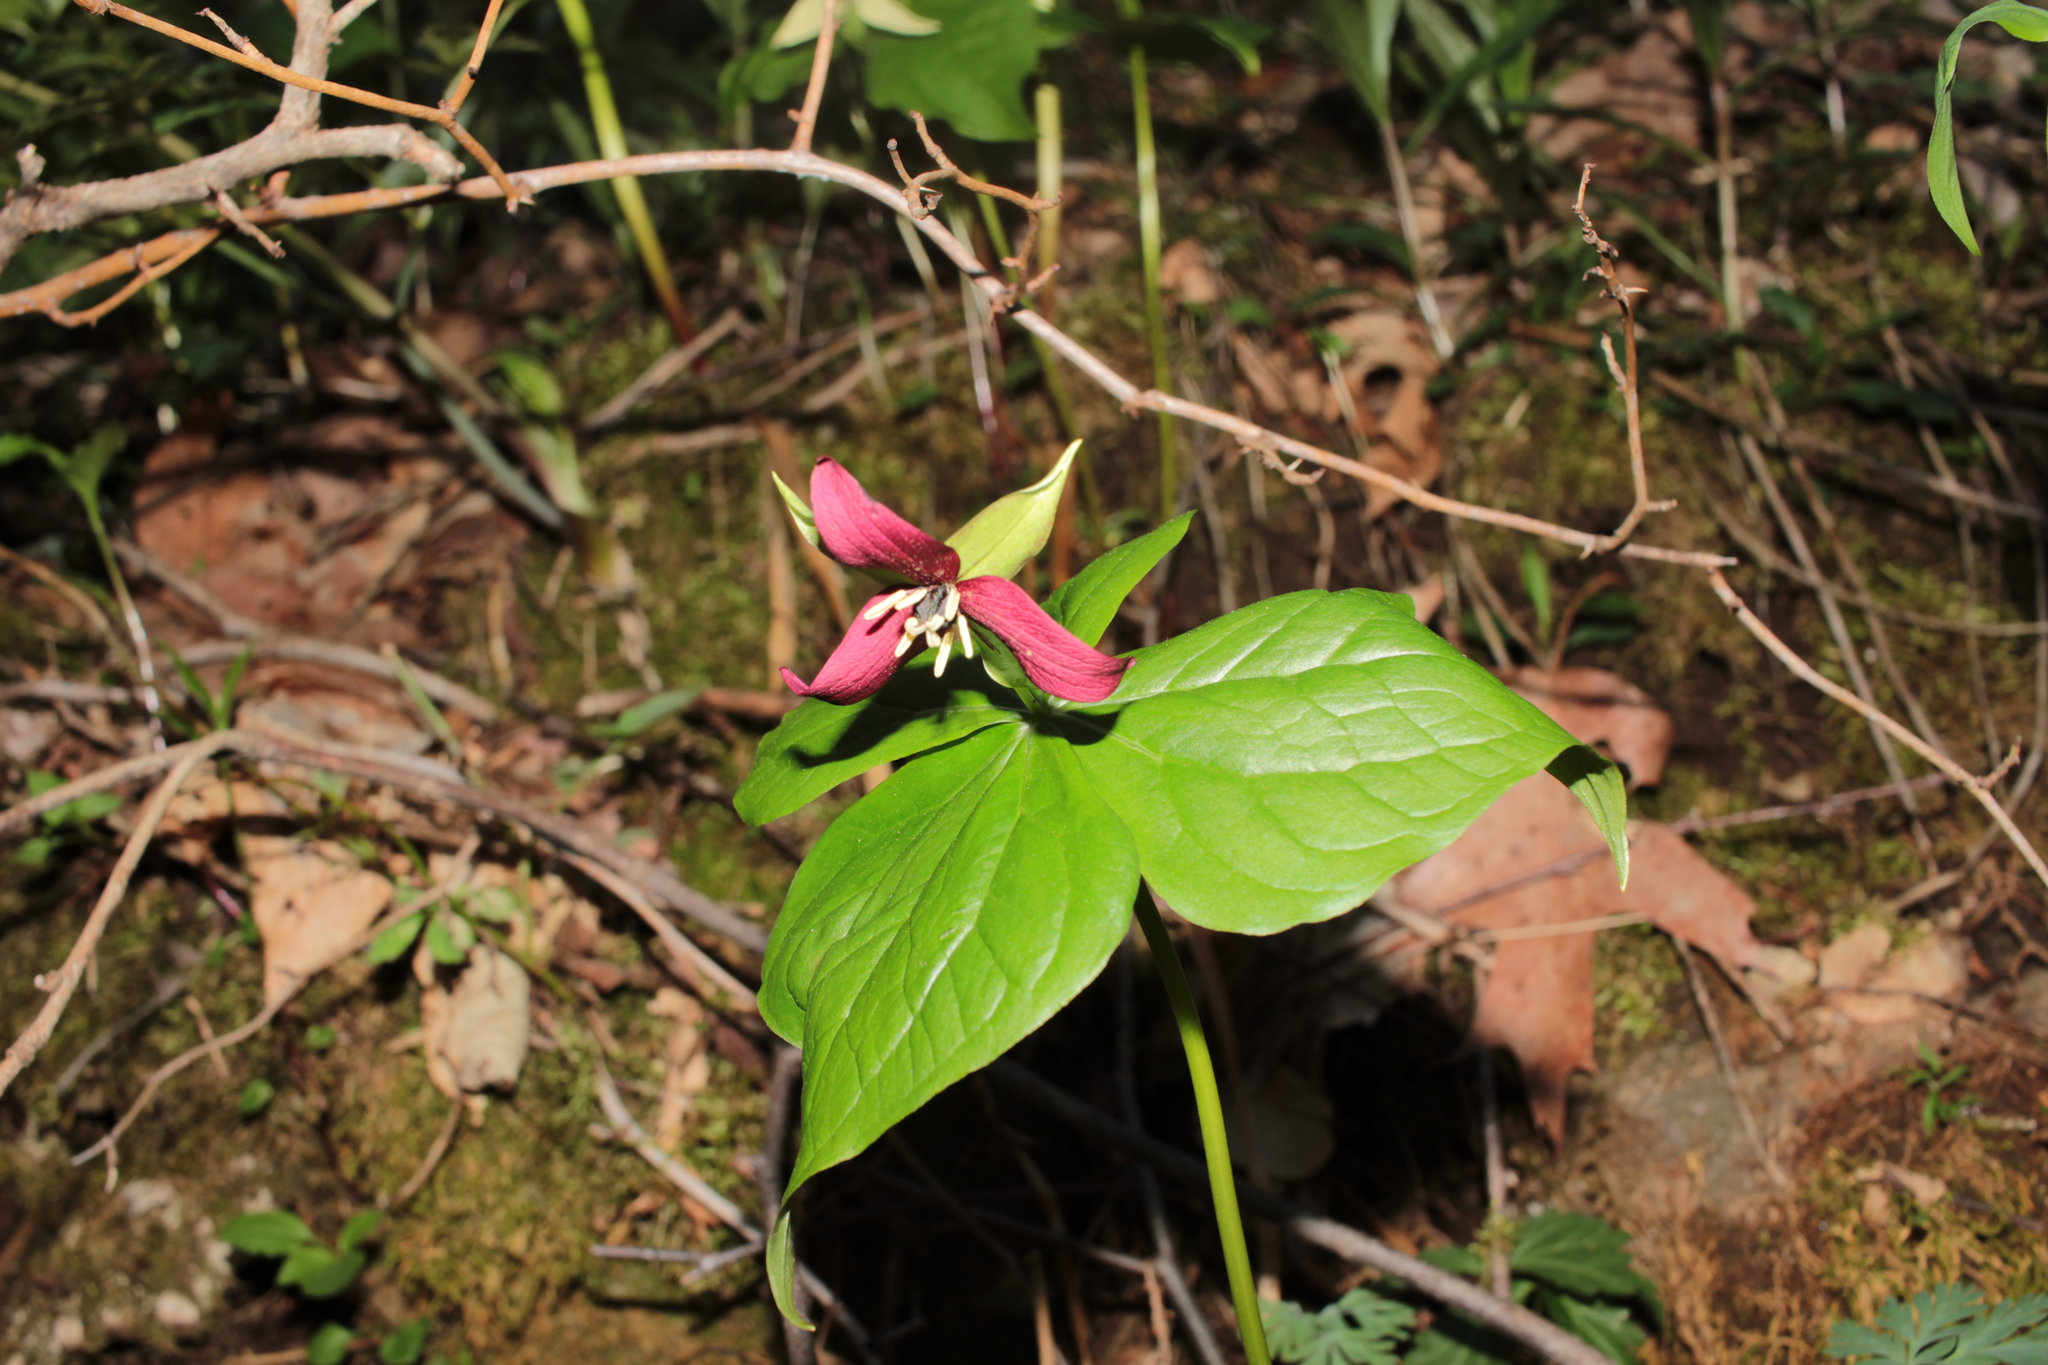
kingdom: Plantae
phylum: Tracheophyta
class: Liliopsida
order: Liliales
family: Melanthiaceae
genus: Trillium
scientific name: Trillium erectum
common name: Purple trillium
